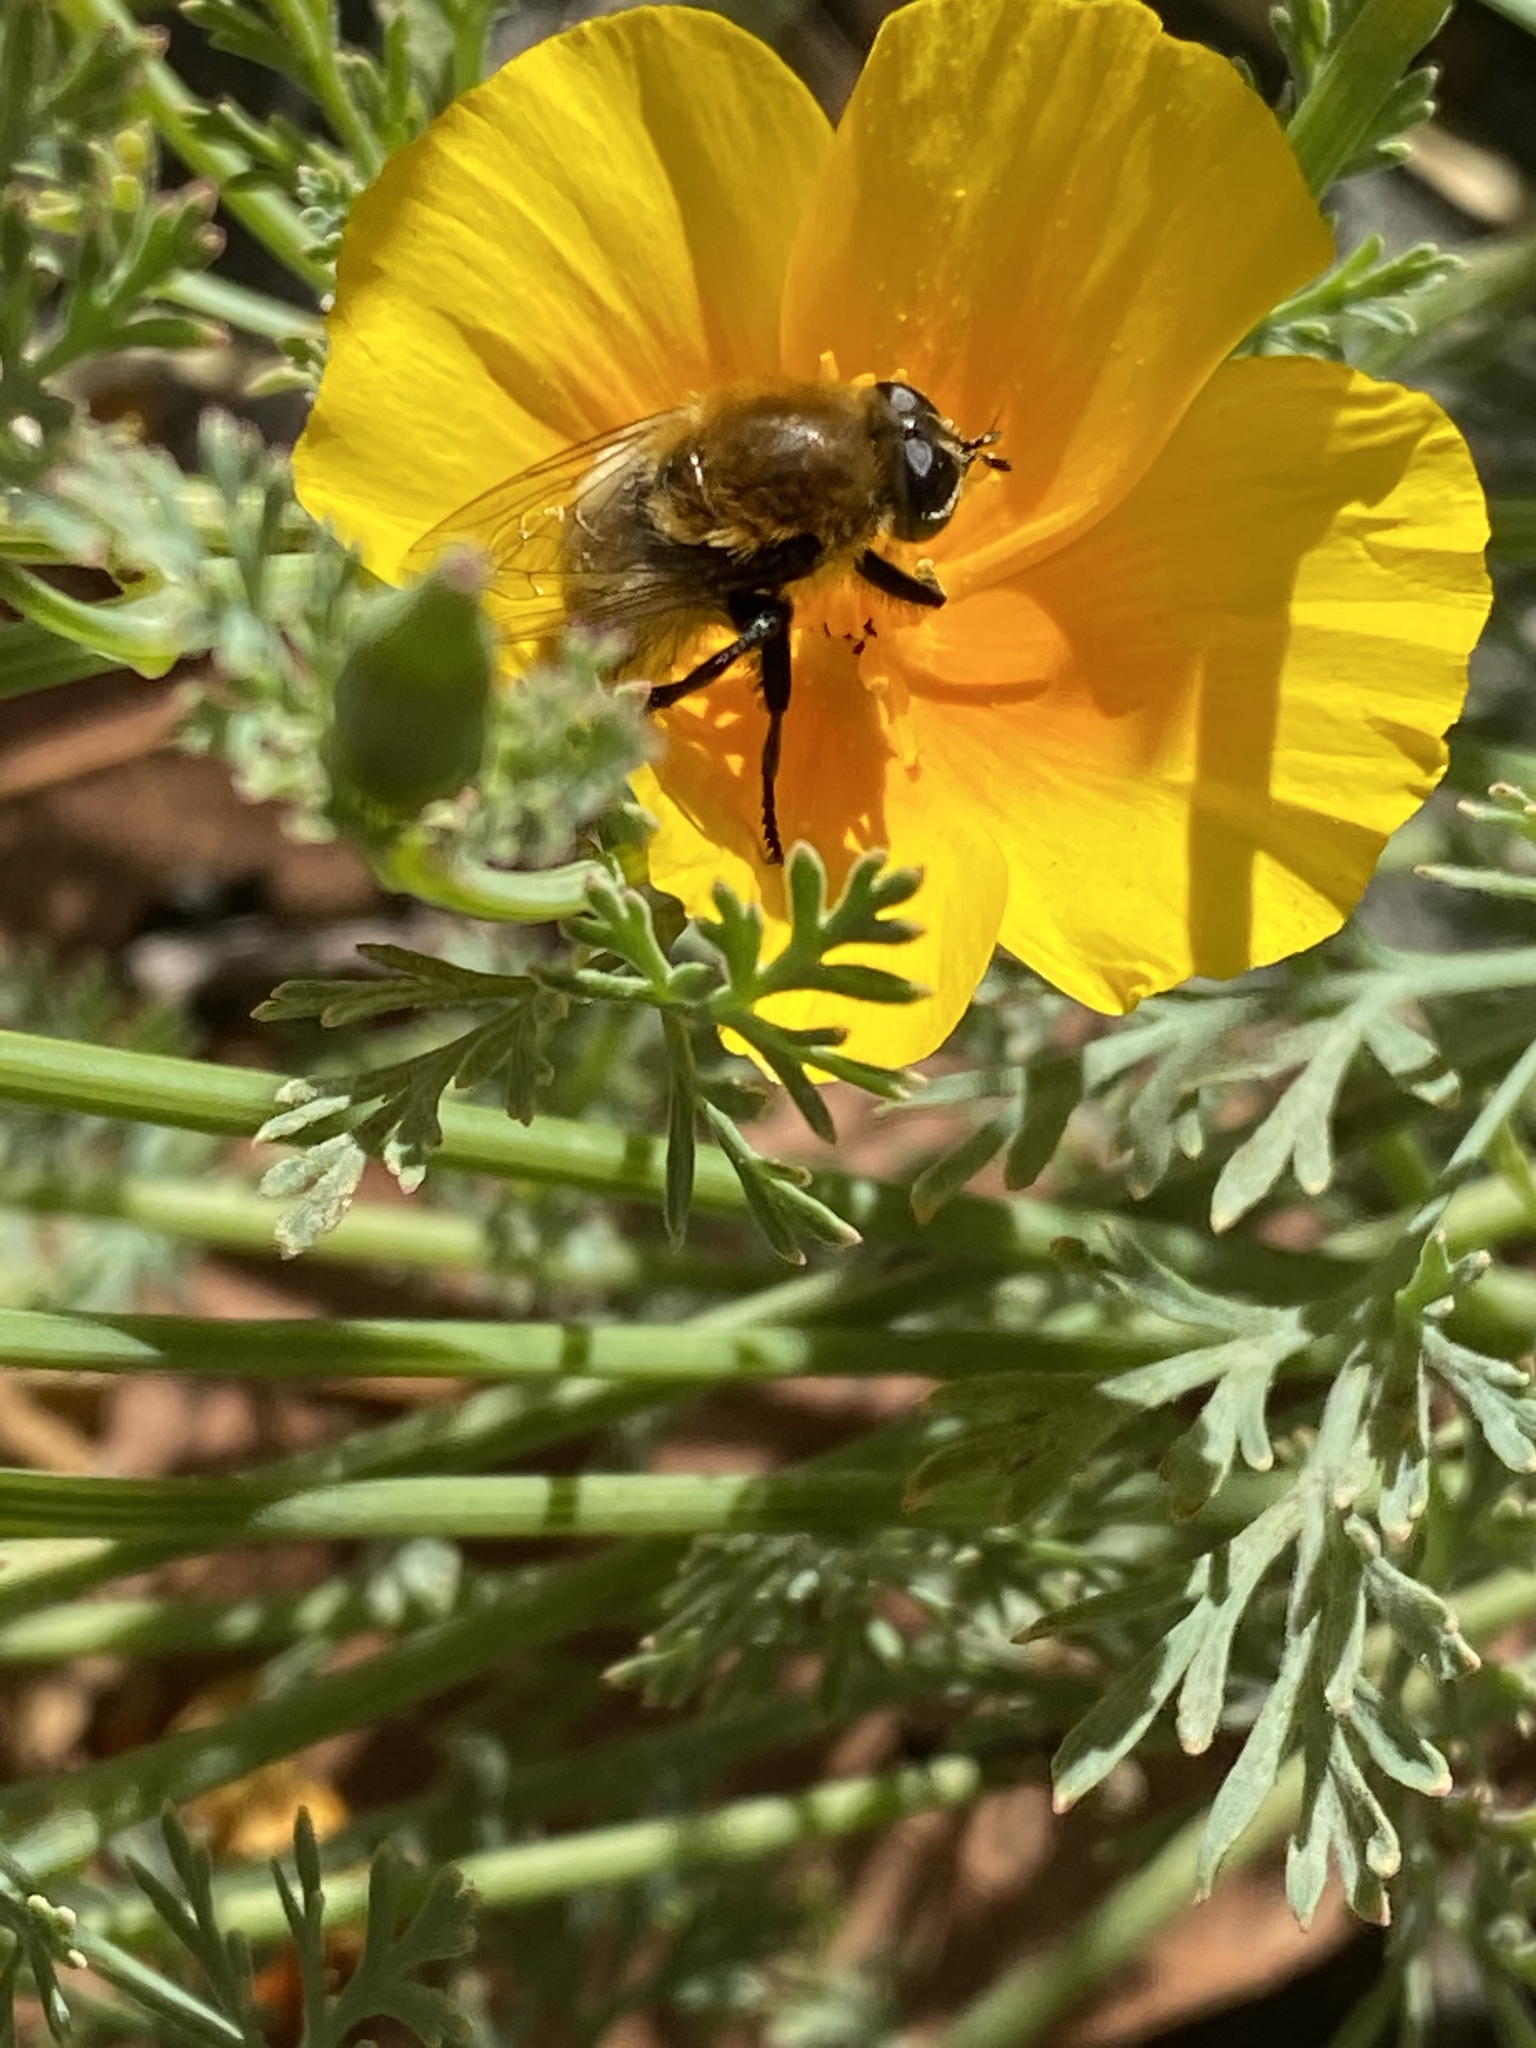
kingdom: Animalia
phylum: Arthropoda
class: Insecta
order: Diptera
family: Syrphidae
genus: Merodon
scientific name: Merodon equestris
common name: Greater bulb-fly
